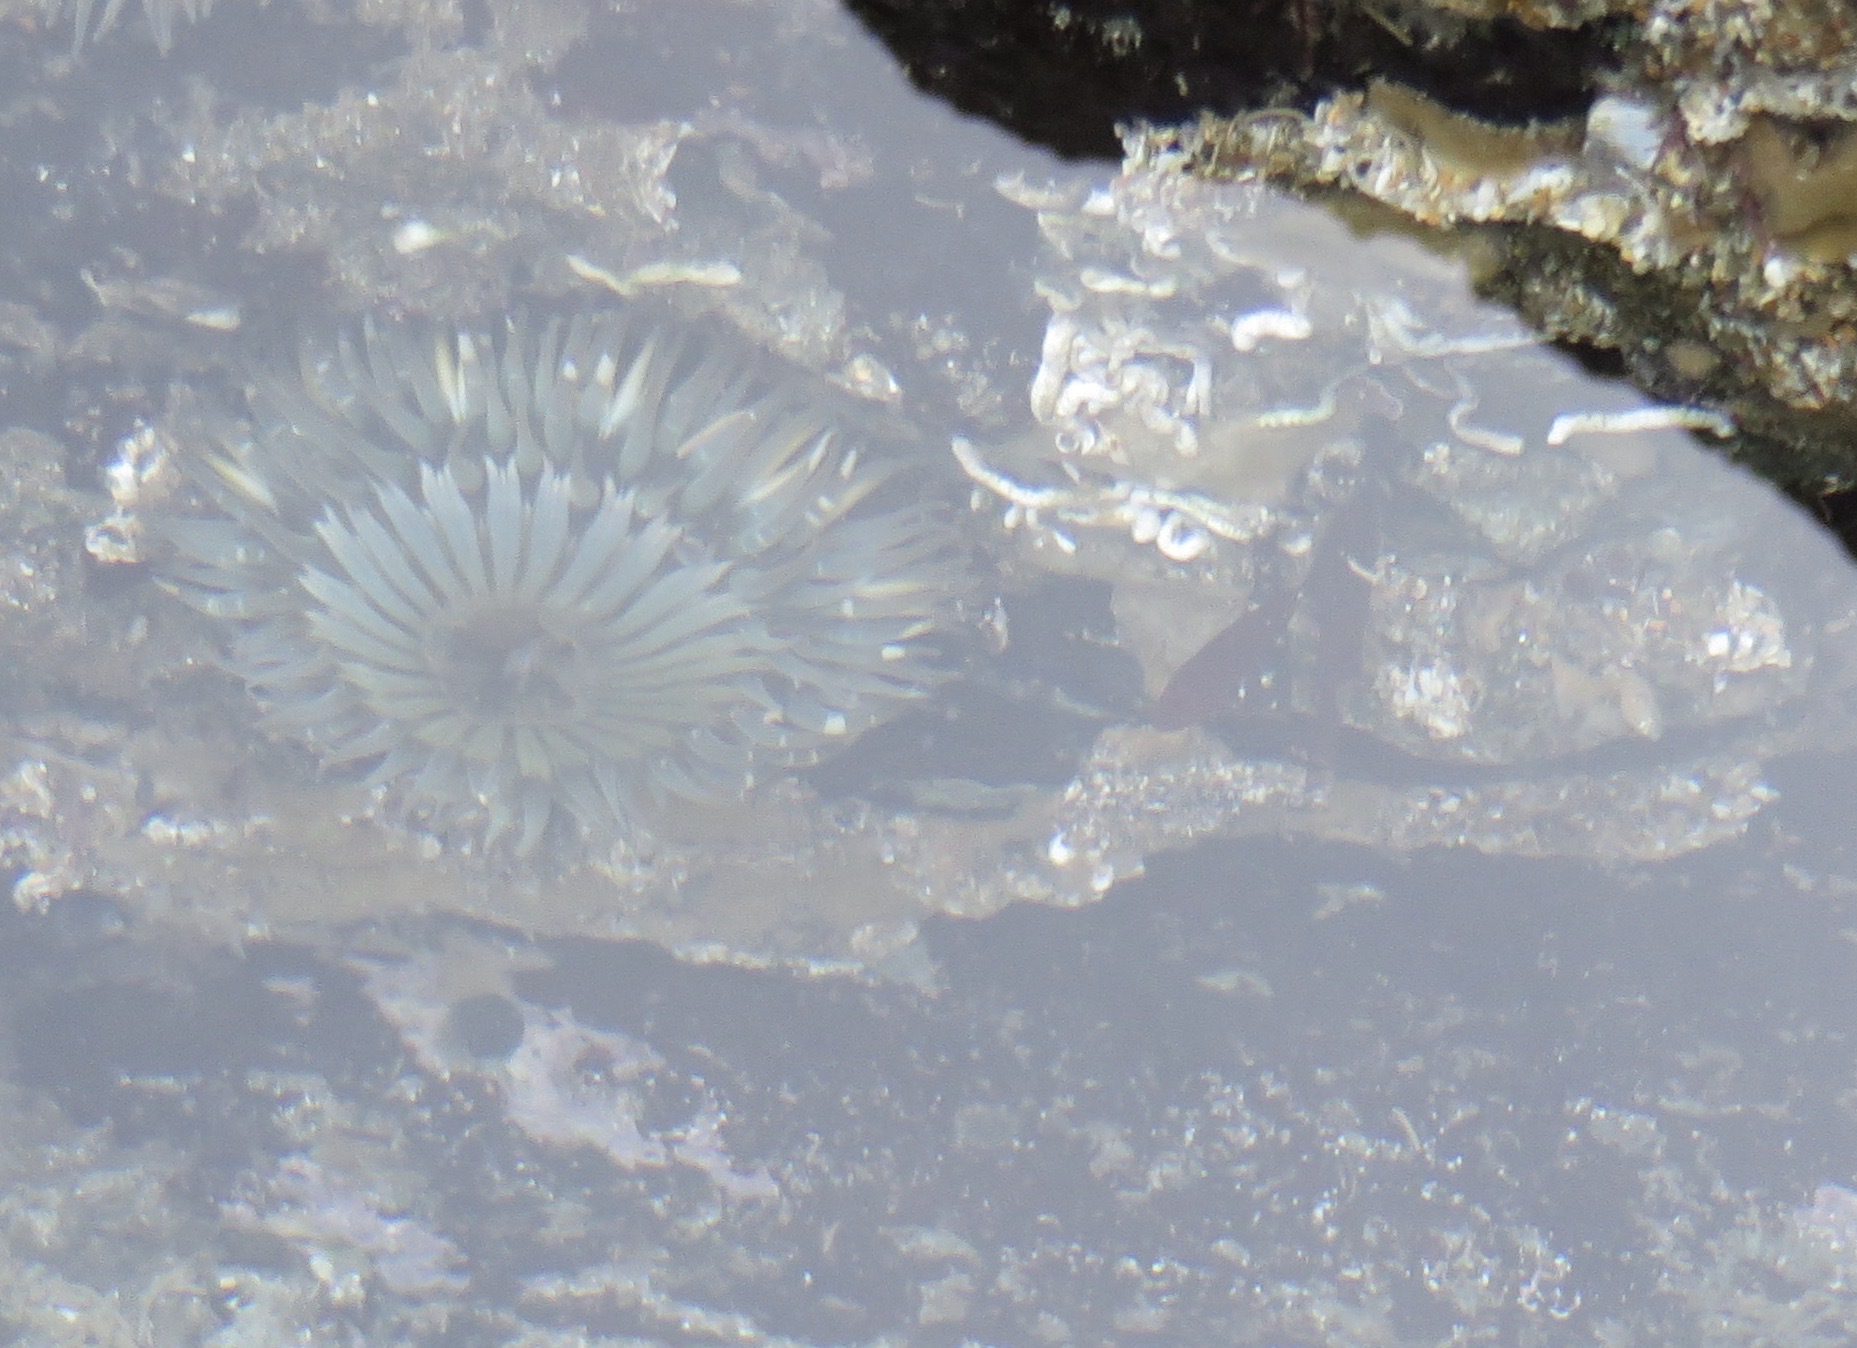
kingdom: Animalia
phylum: Cnidaria
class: Anthozoa
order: Actiniaria
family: Actiniidae
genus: Anthopleura
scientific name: Anthopleura sola
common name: Sun anemone
